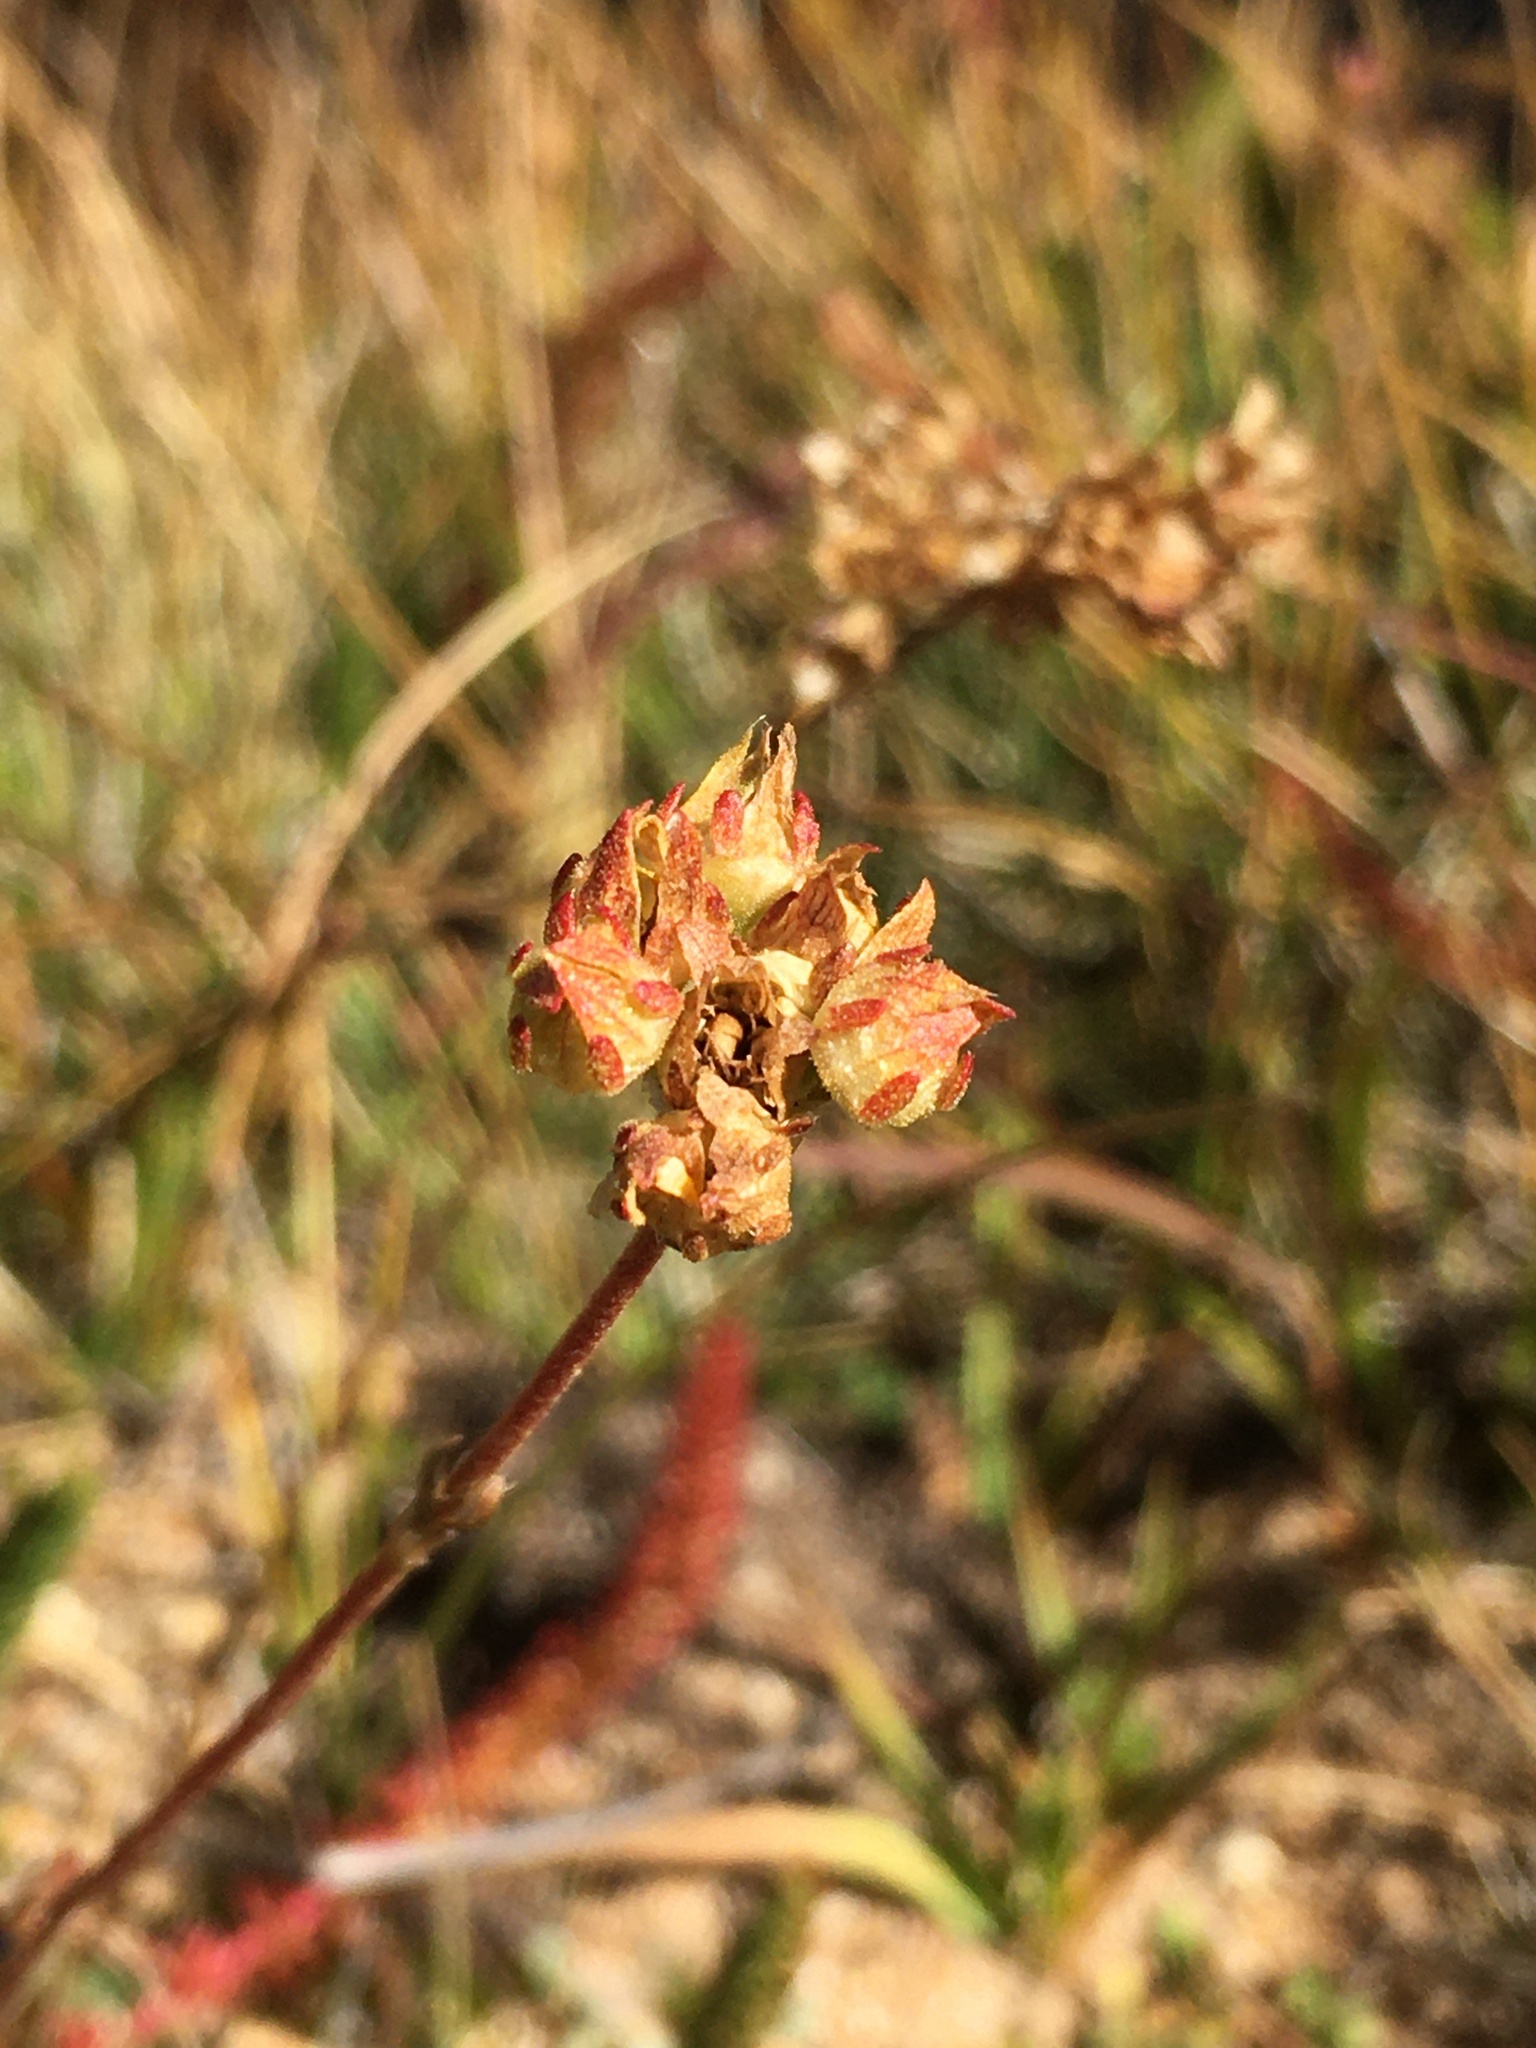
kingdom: Plantae
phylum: Tracheophyta
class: Magnoliopsida
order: Rosales
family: Rosaceae
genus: Potentilla
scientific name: Potentilla lycopodioides
